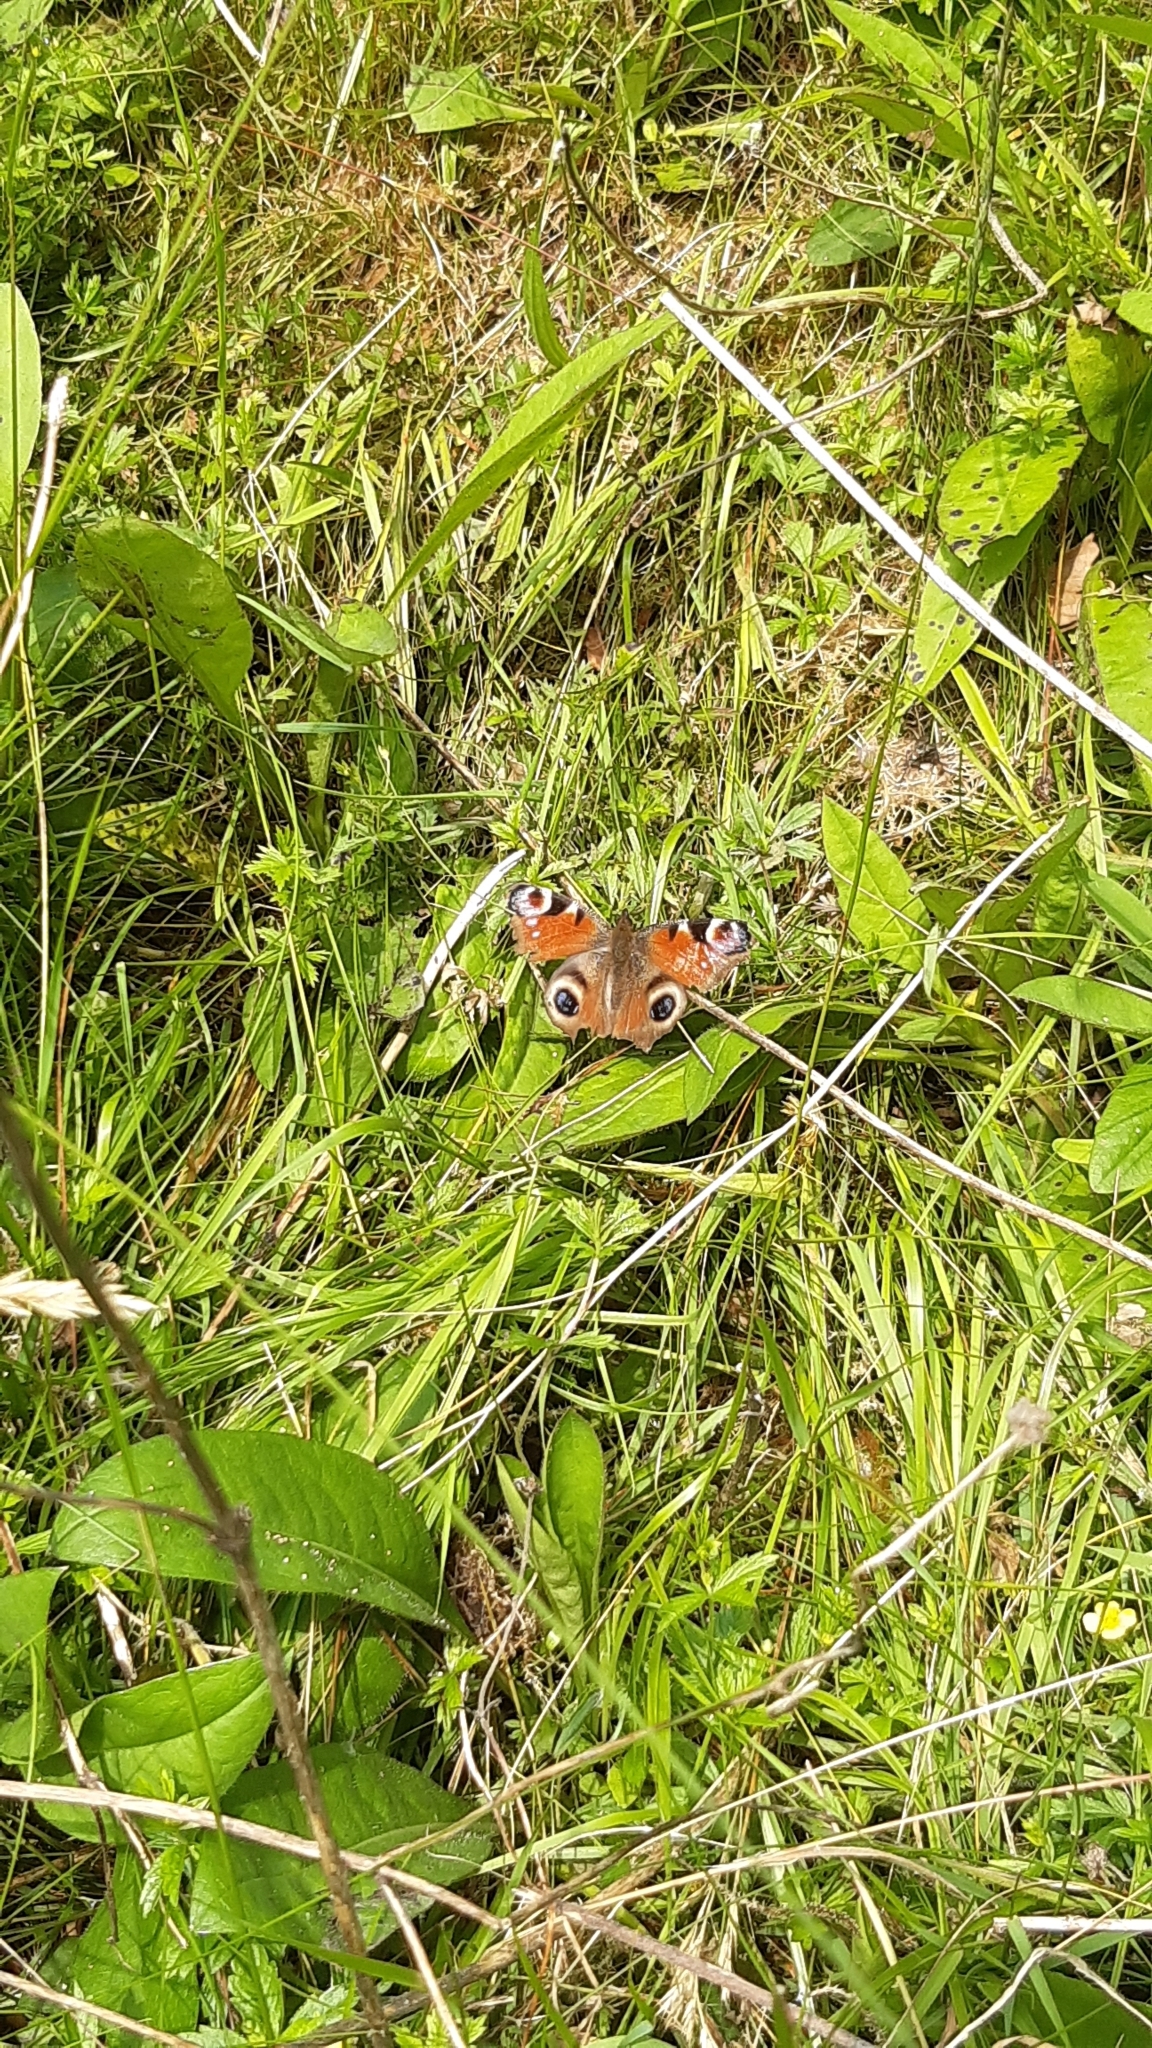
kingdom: Animalia
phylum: Arthropoda
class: Insecta
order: Lepidoptera
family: Nymphalidae
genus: Aglais
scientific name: Aglais io
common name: Peacock
